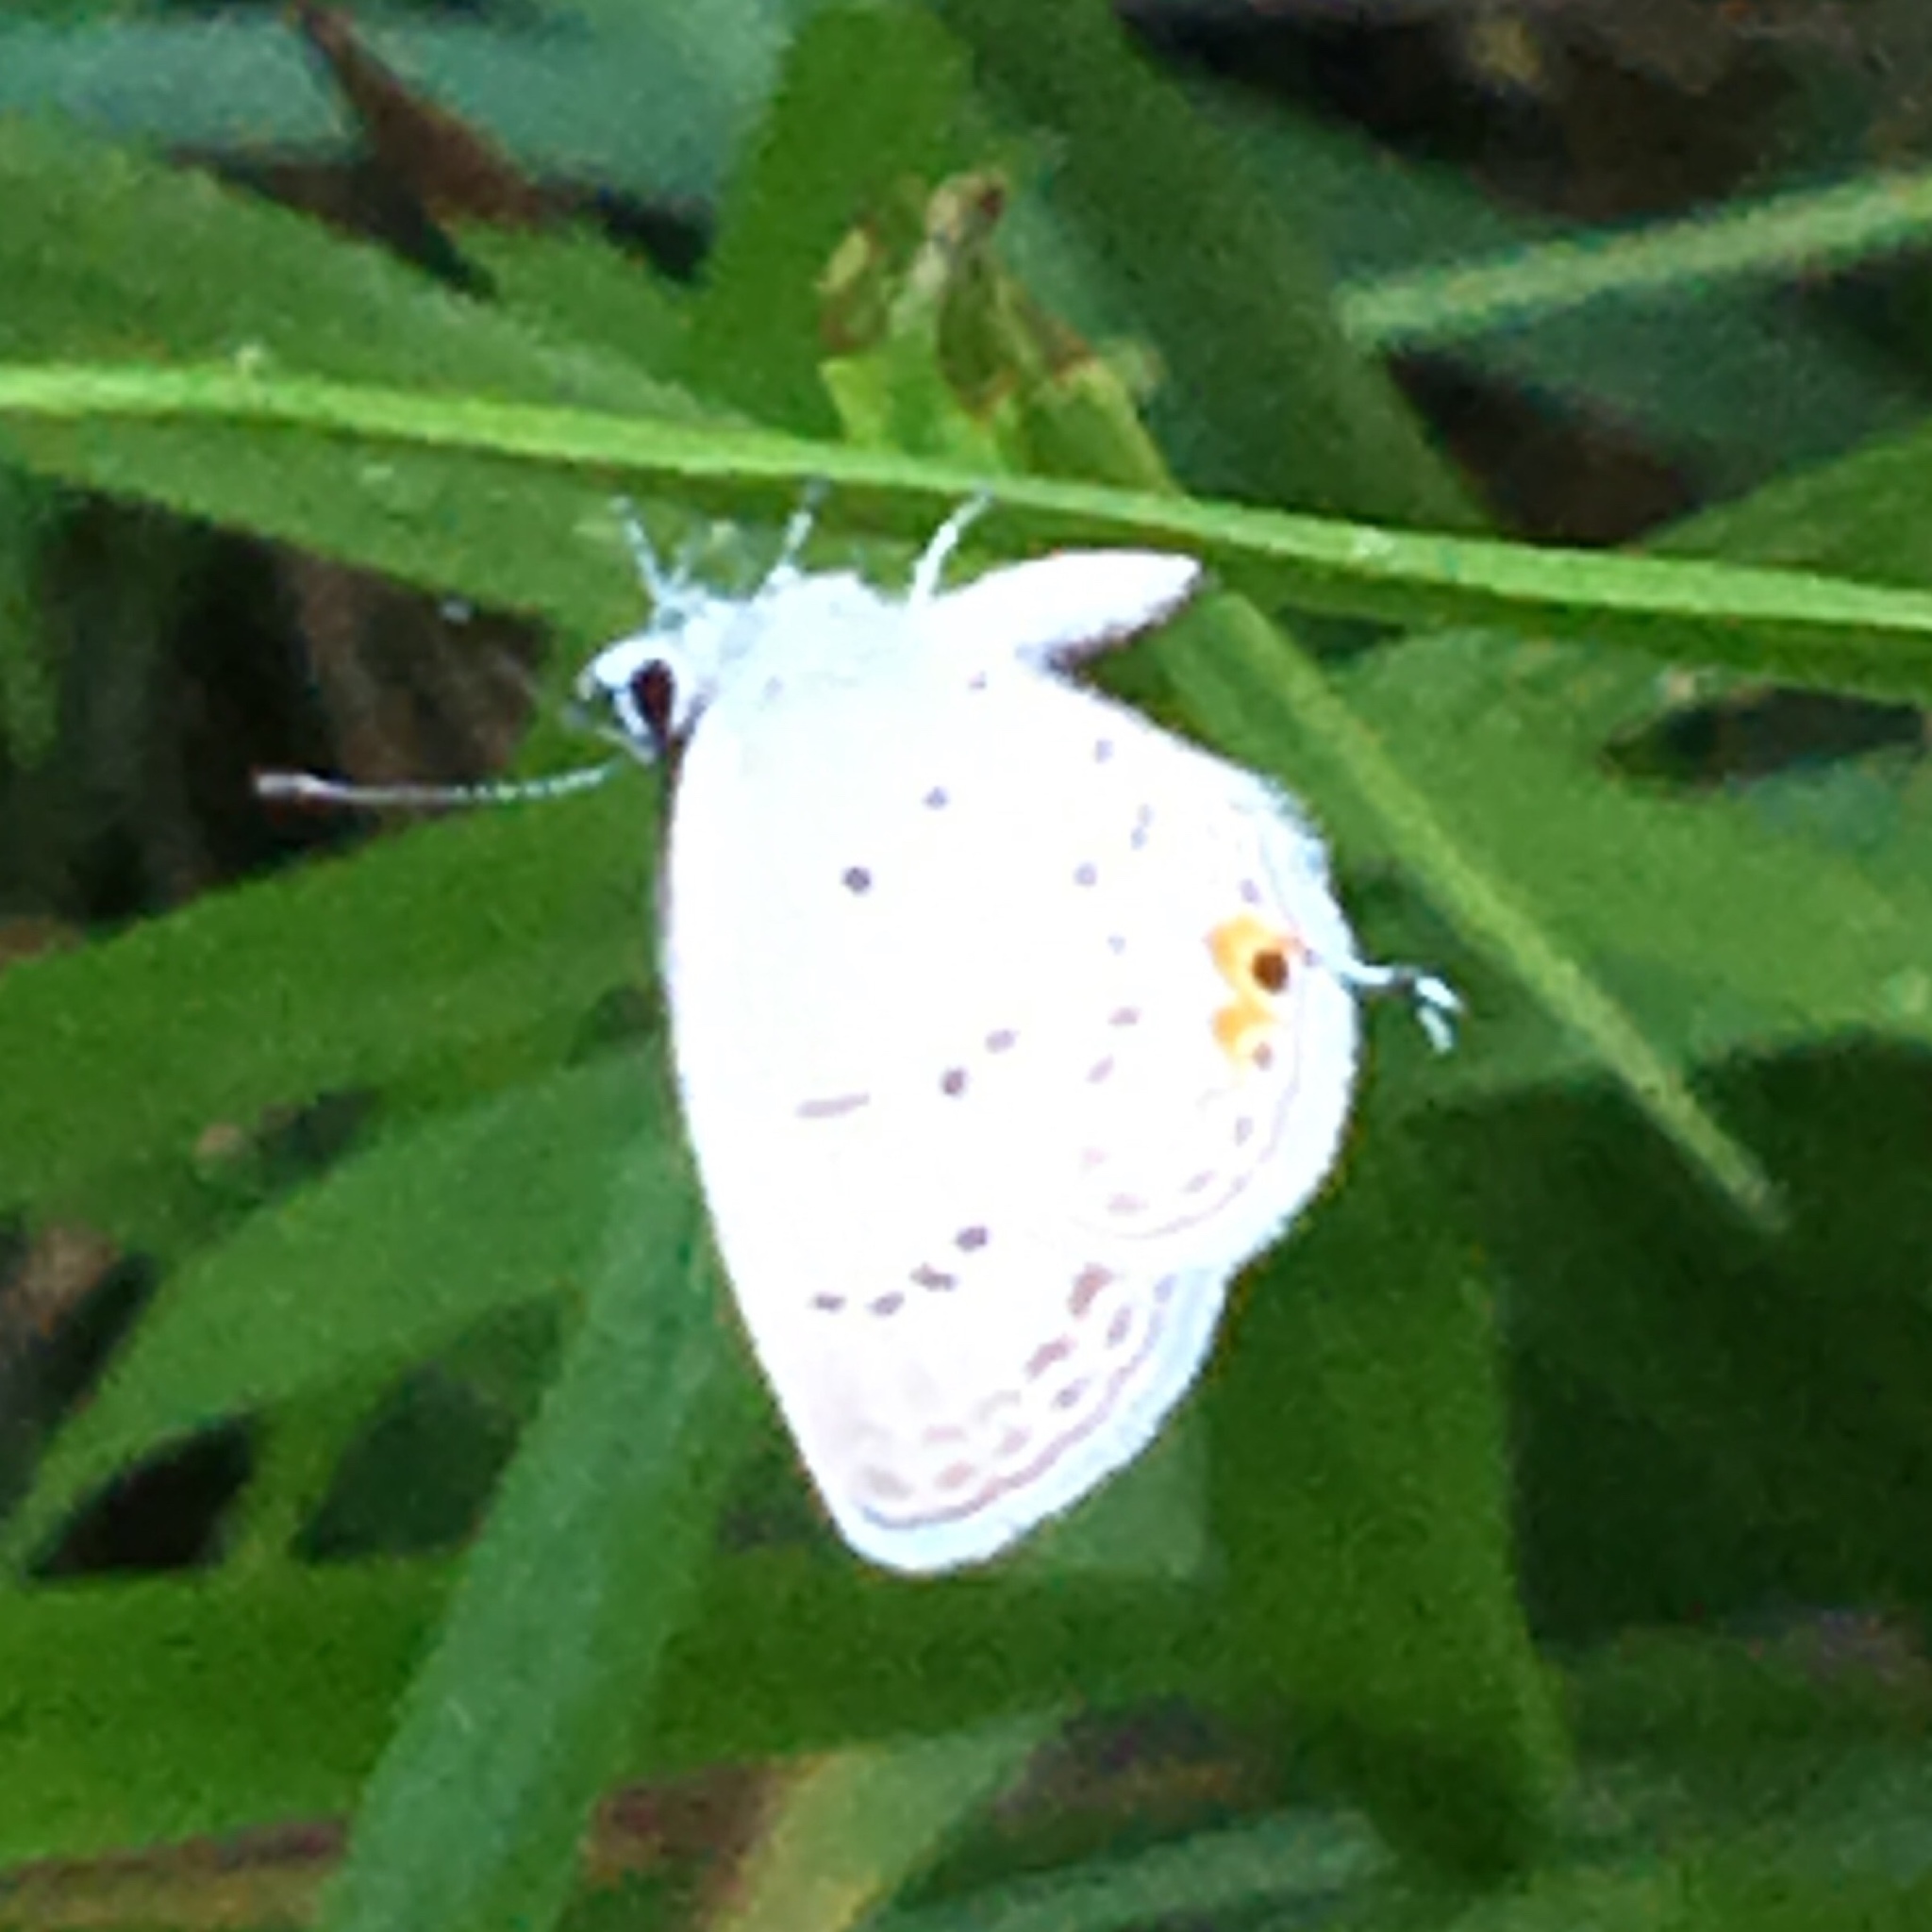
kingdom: Animalia
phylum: Arthropoda
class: Insecta
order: Lepidoptera
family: Lycaenidae
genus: Elkalyce
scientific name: Elkalyce comyntas
